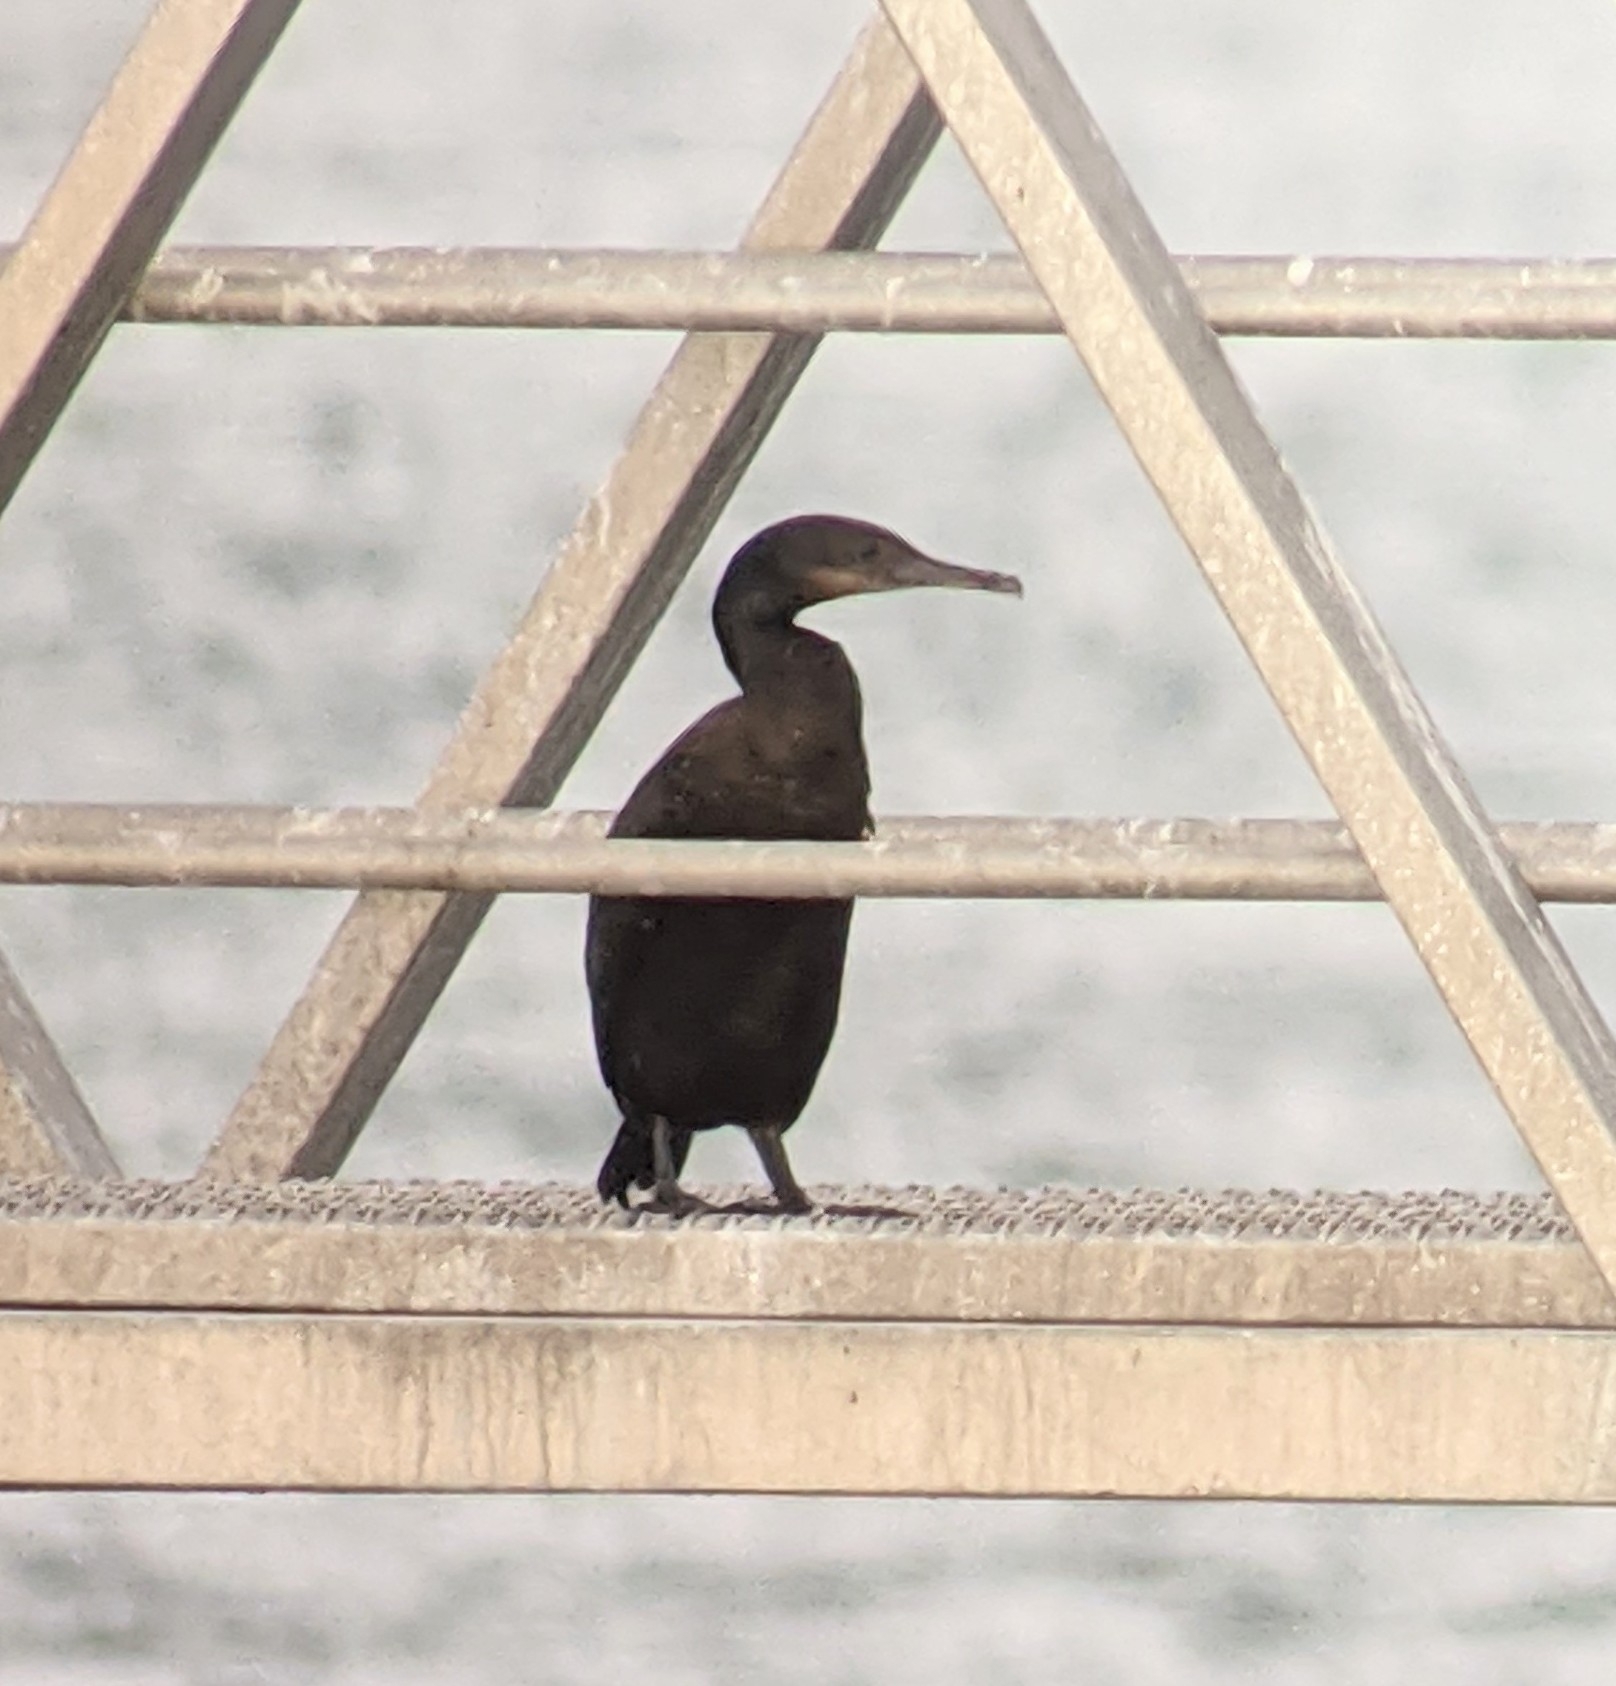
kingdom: Animalia
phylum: Chordata
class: Aves
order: Suliformes
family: Phalacrocoracidae
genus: Urile
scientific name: Urile penicillatus
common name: Brandt's cormorant
